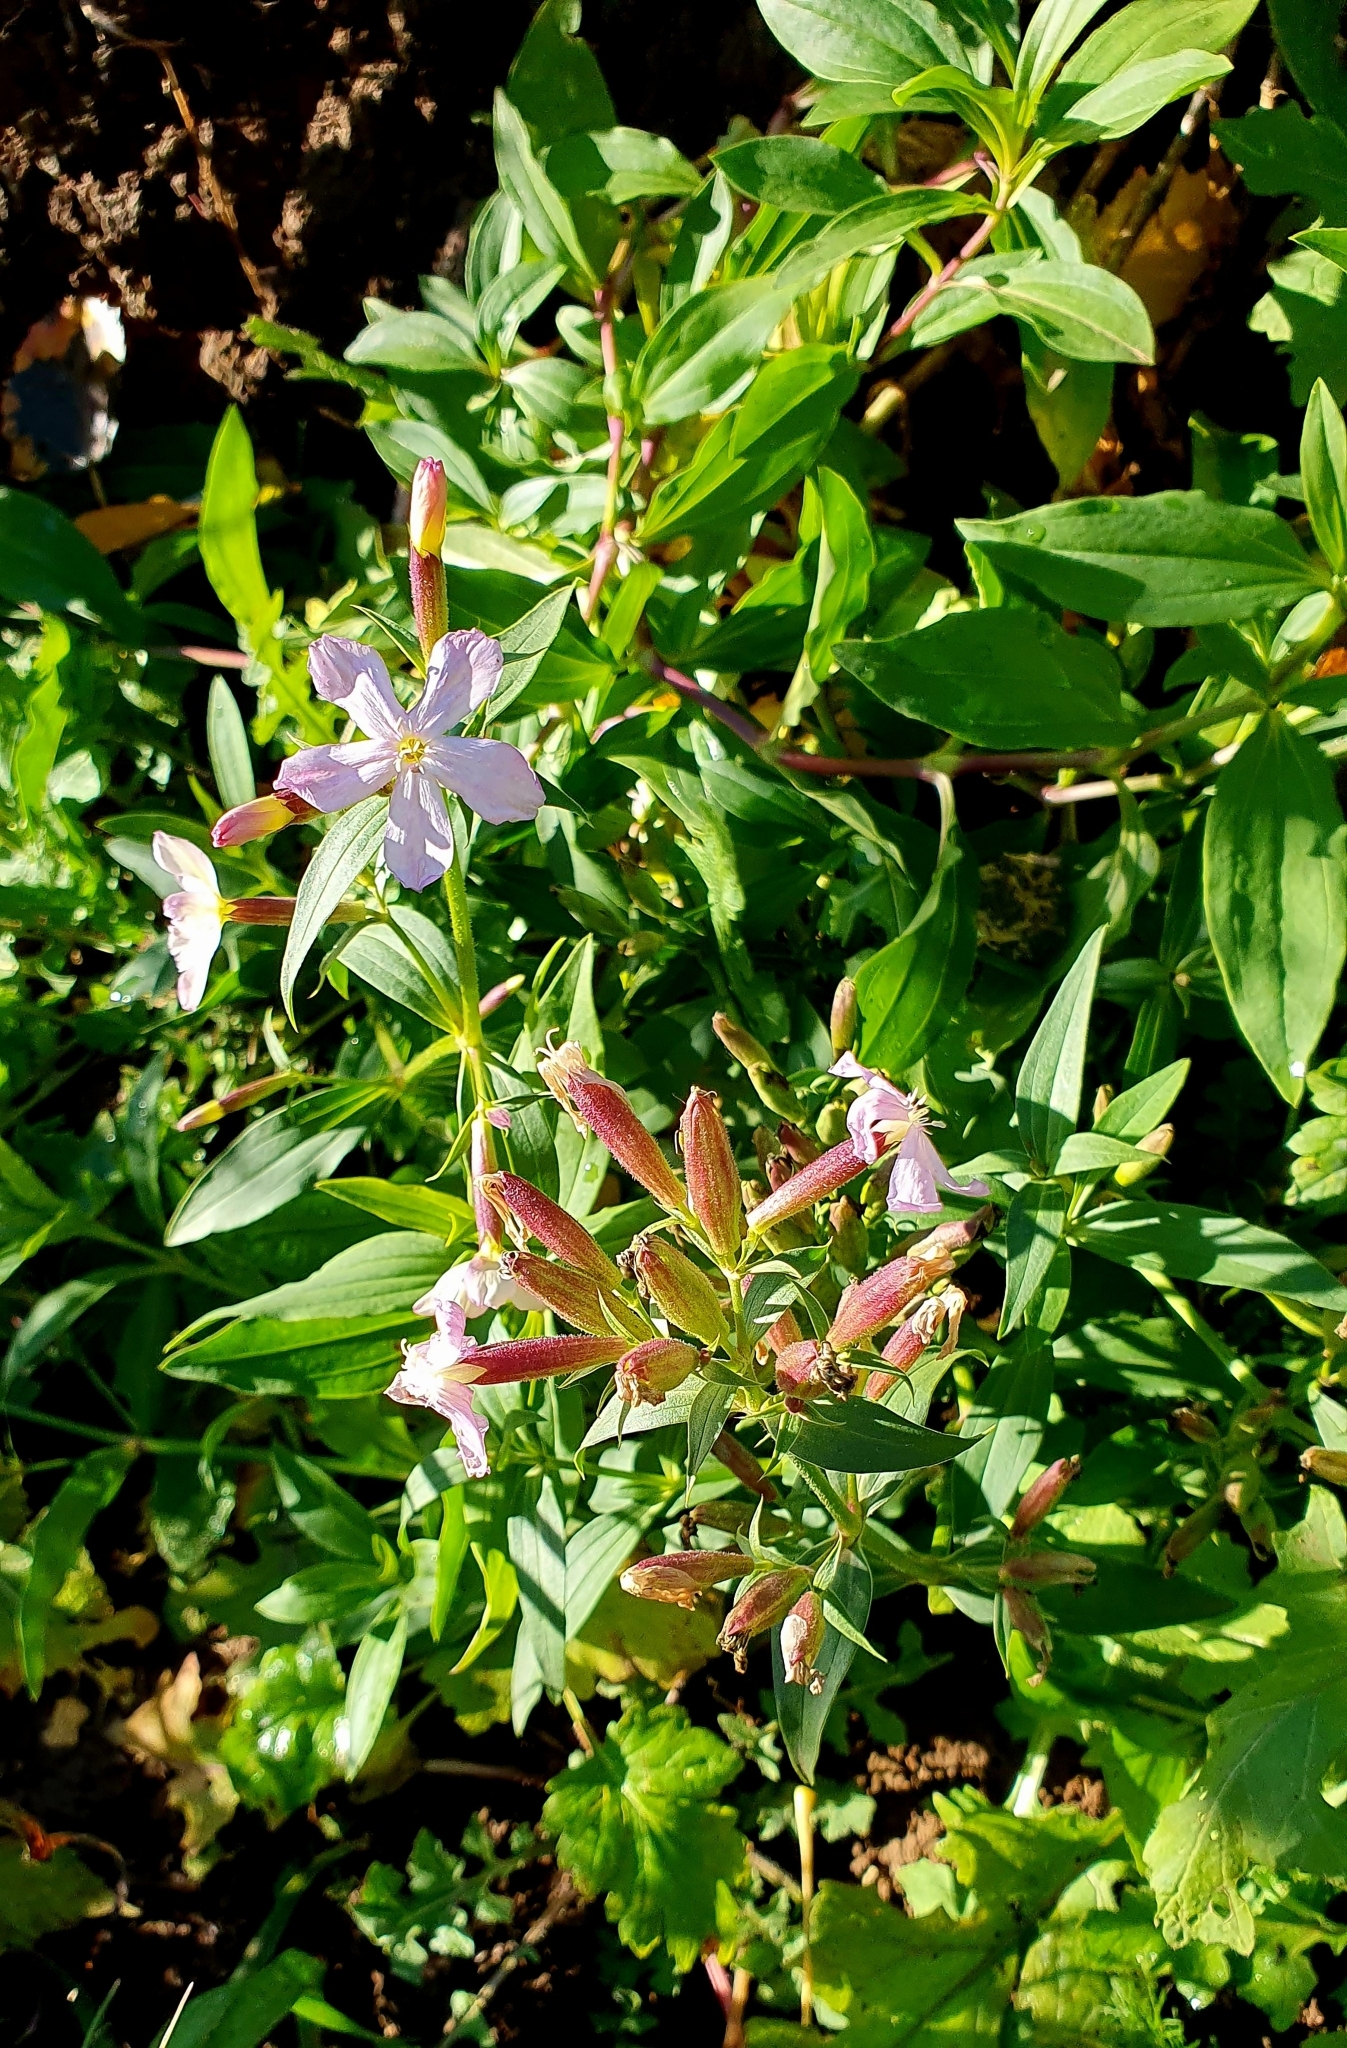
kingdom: Plantae
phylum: Tracheophyta
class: Magnoliopsida
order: Caryophyllales
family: Caryophyllaceae
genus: Saponaria
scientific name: Saponaria officinalis
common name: Soapwort
